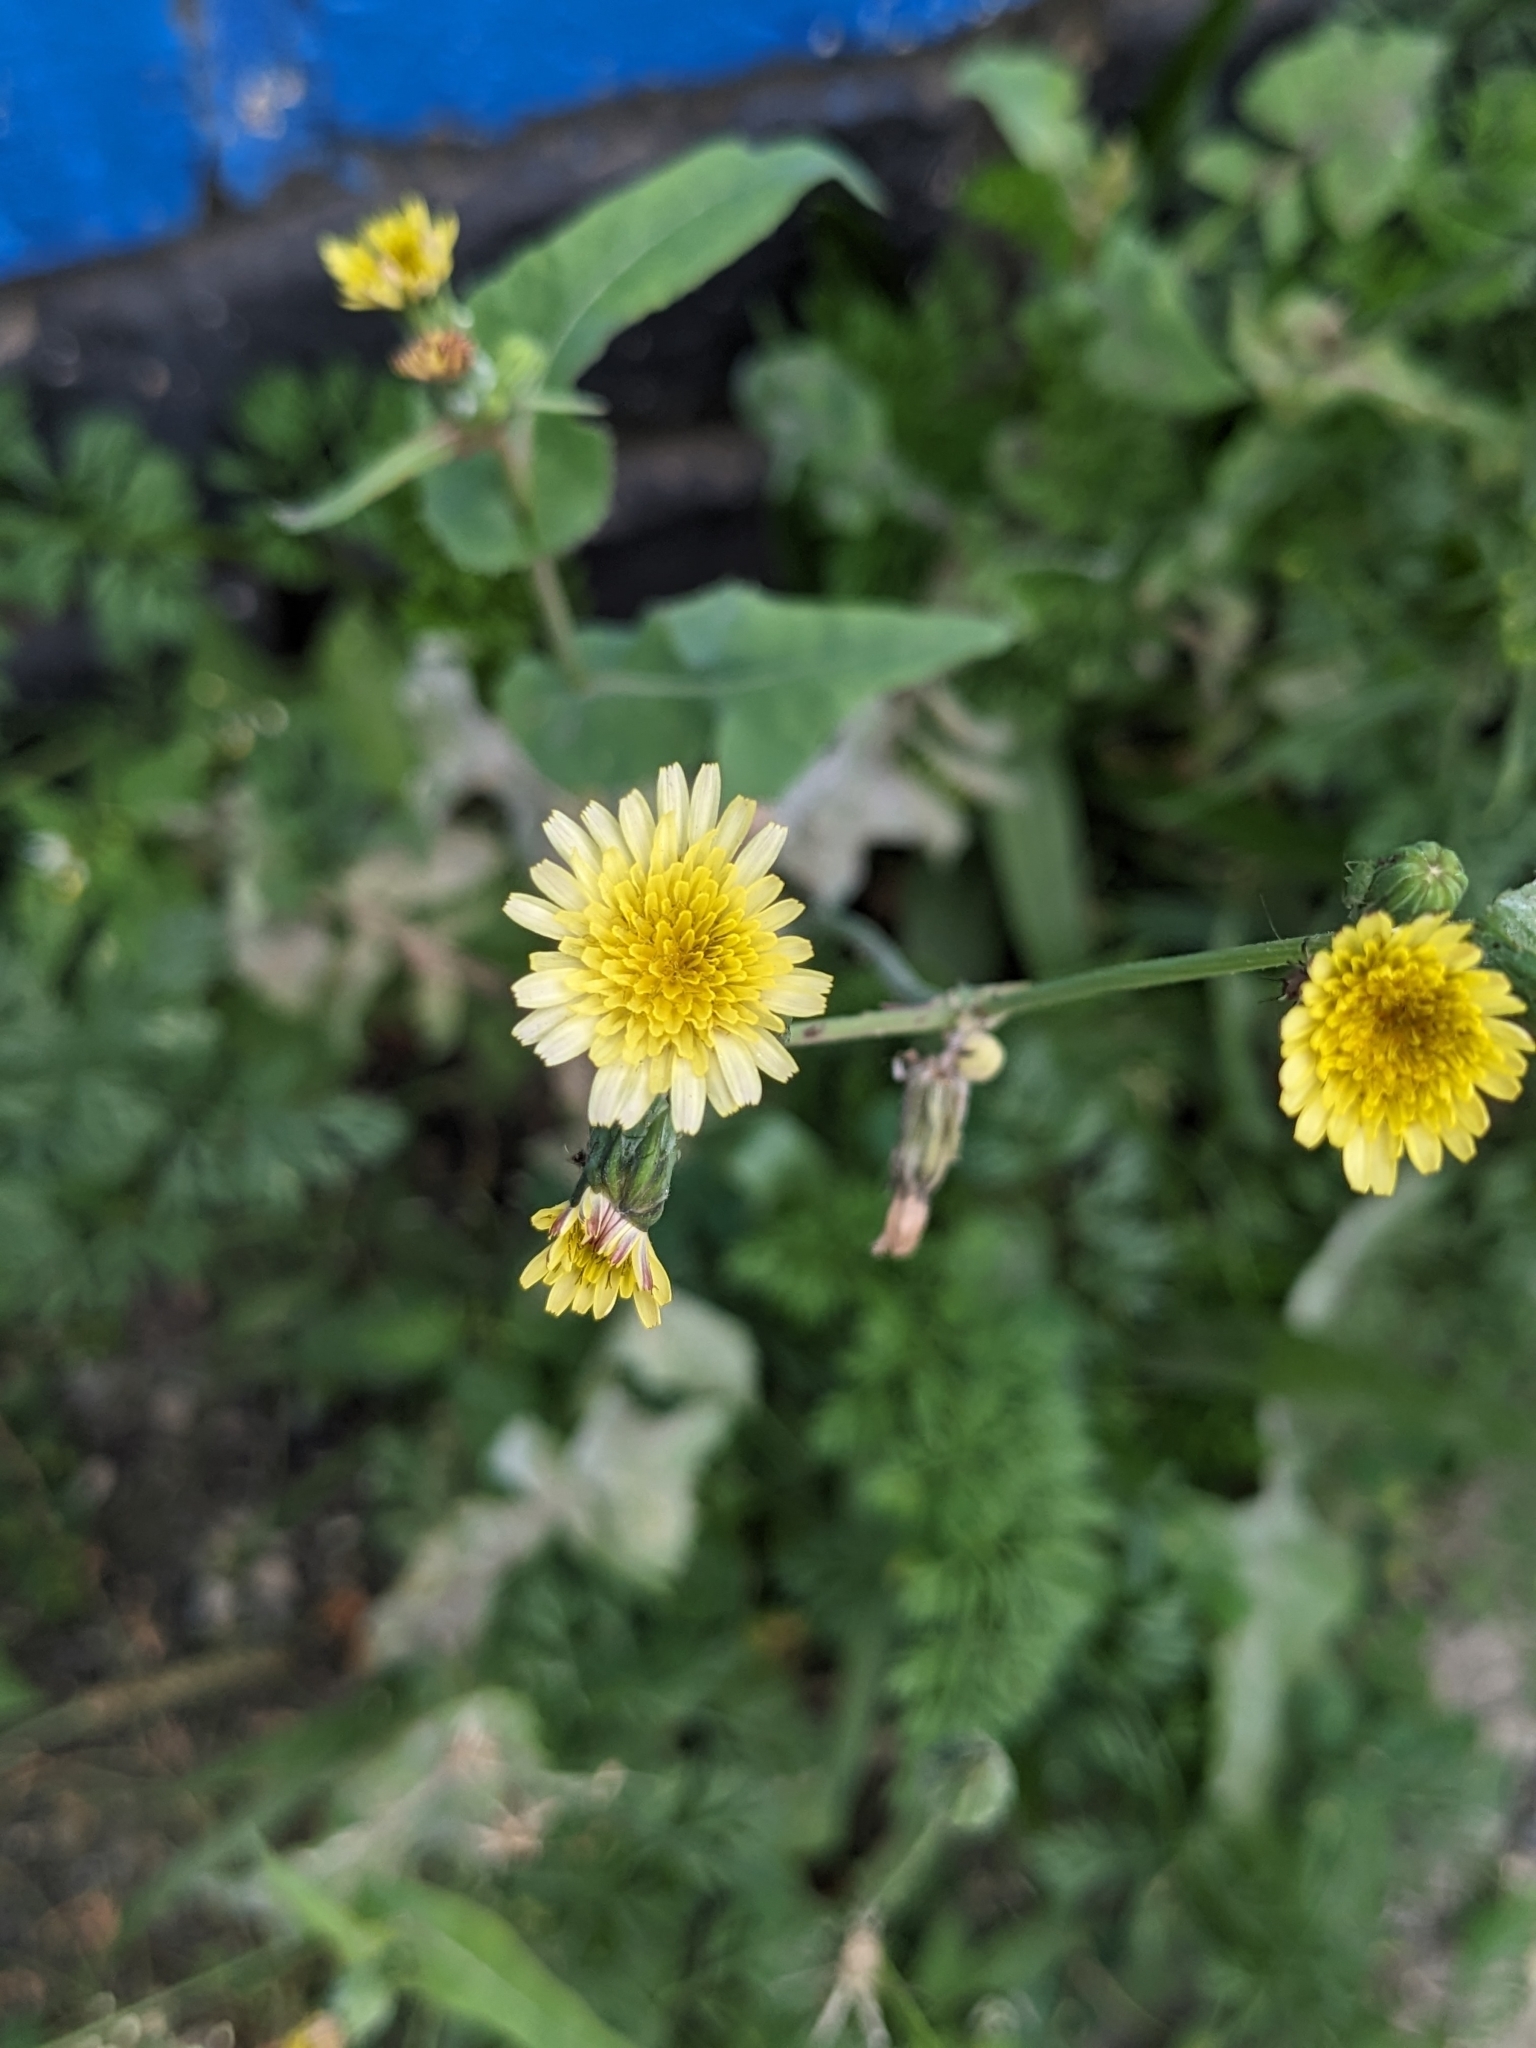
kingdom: Plantae
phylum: Tracheophyta
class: Magnoliopsida
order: Asterales
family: Asteraceae
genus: Sonchus
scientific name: Sonchus oleraceus
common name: Common sowthistle
